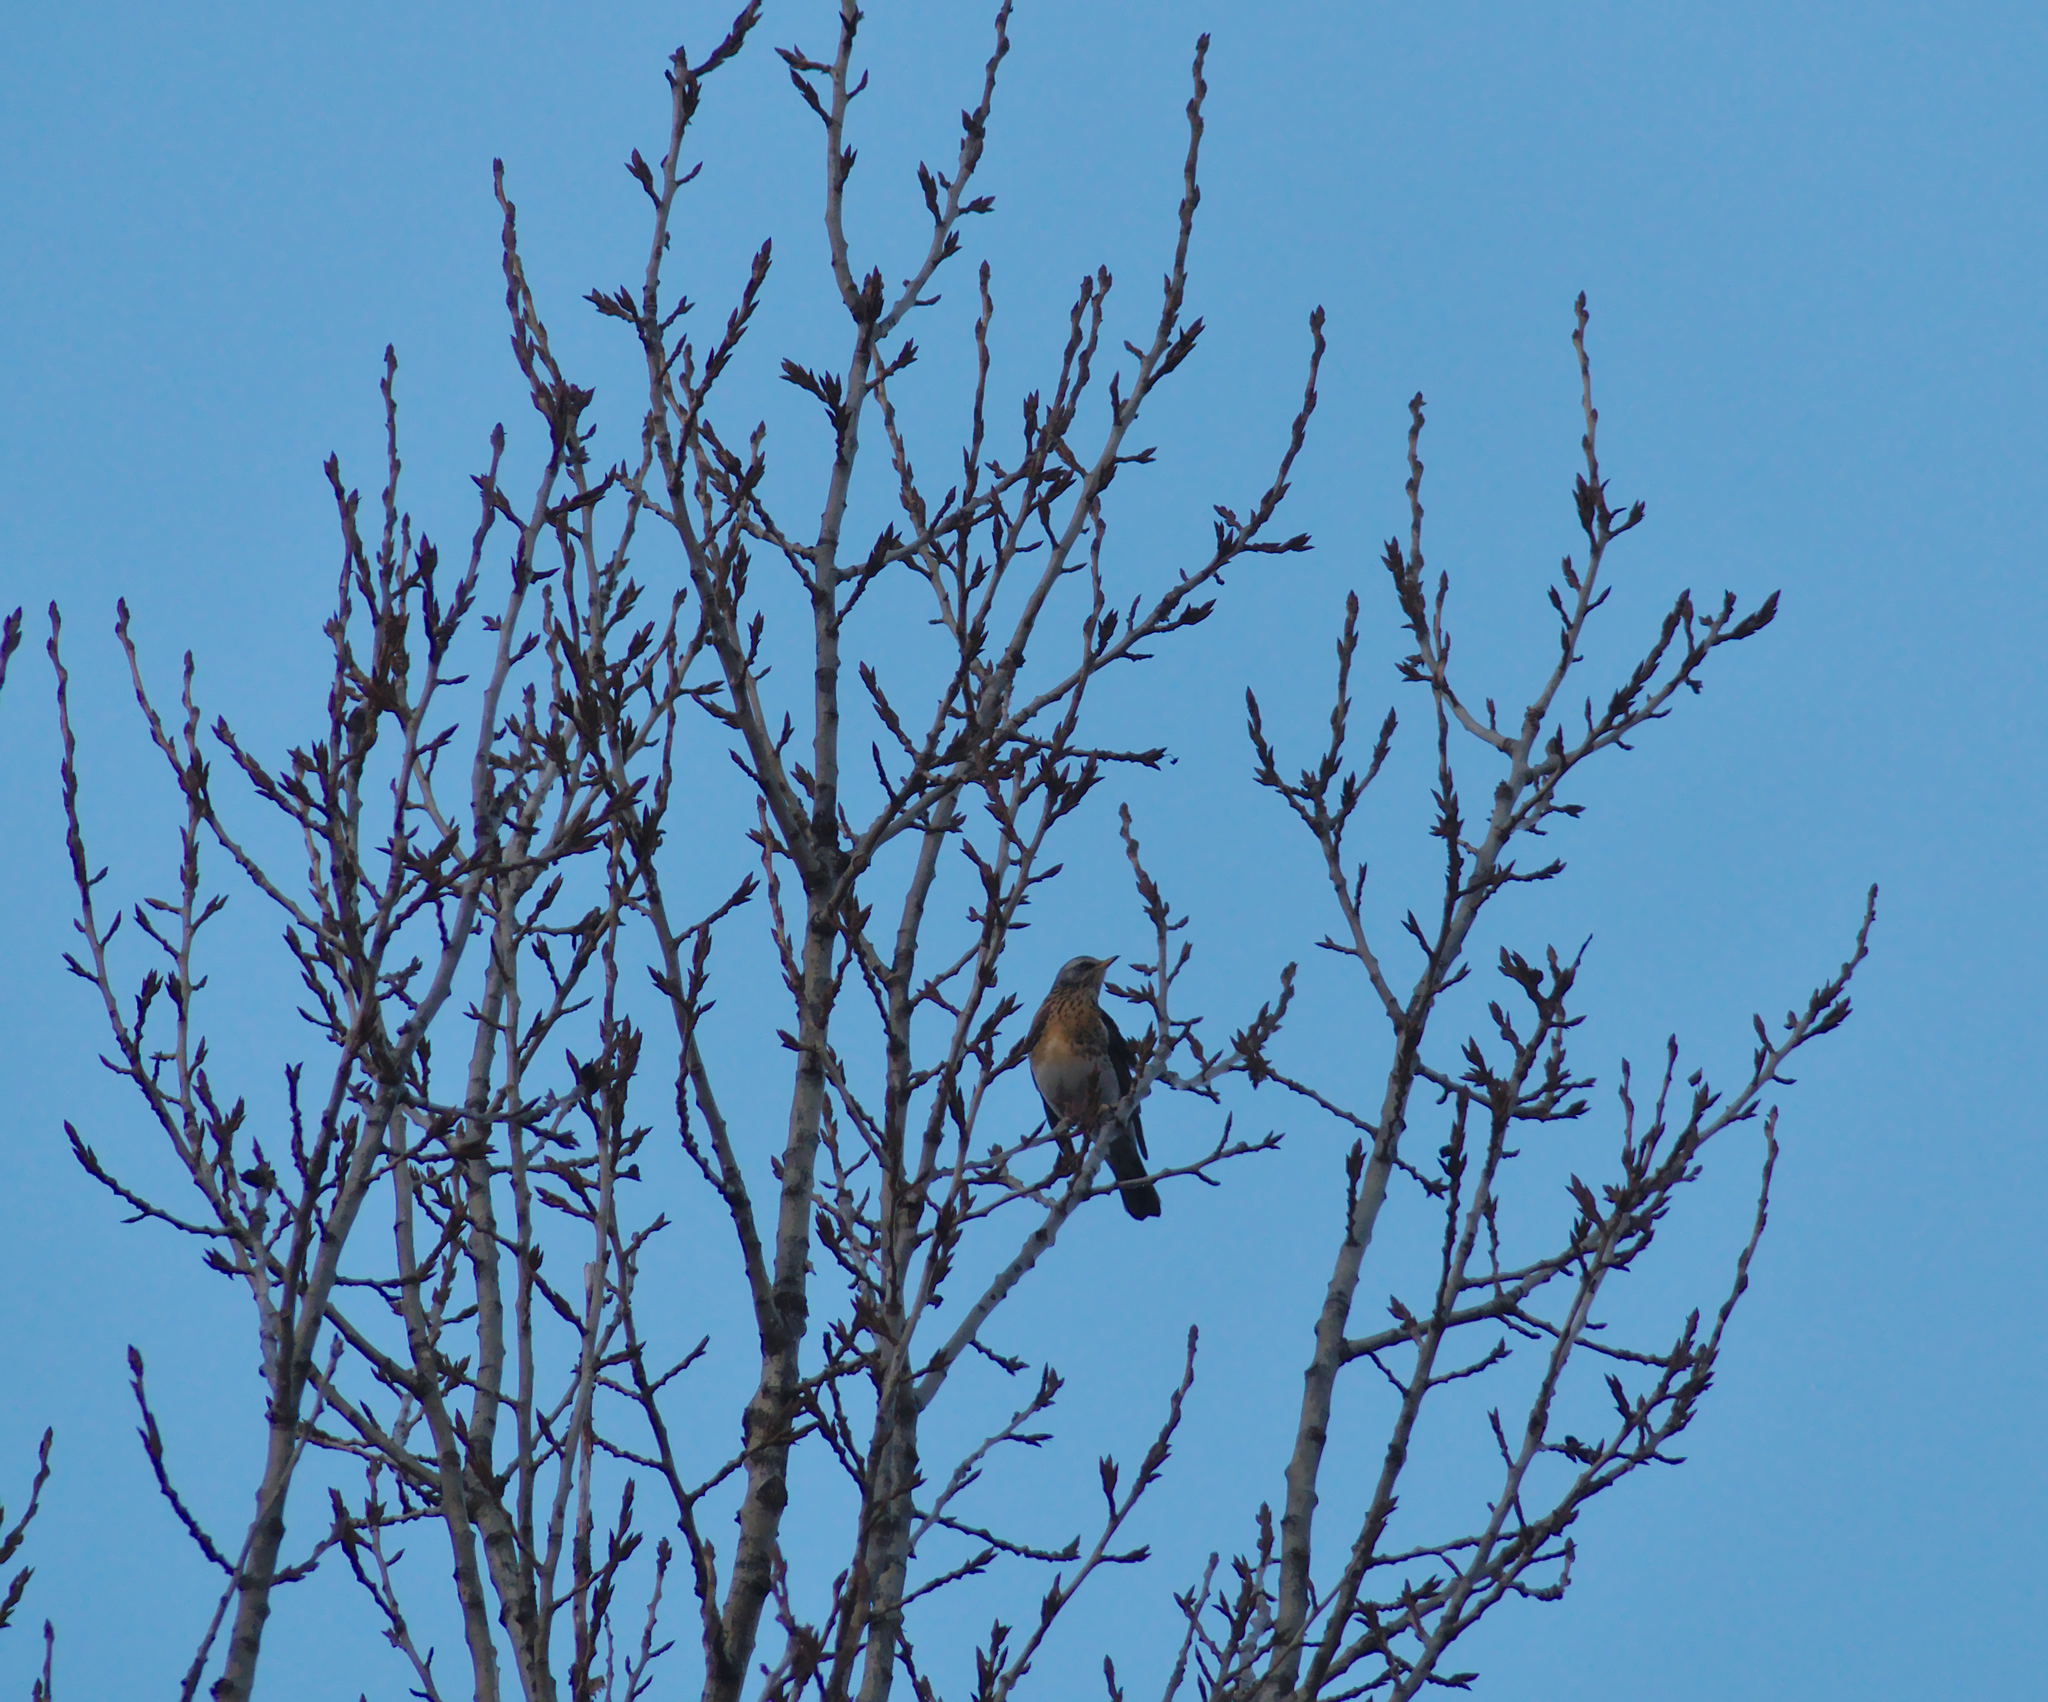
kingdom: Animalia
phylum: Chordata
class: Aves
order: Passeriformes
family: Turdidae
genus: Turdus
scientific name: Turdus pilaris
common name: Fieldfare
